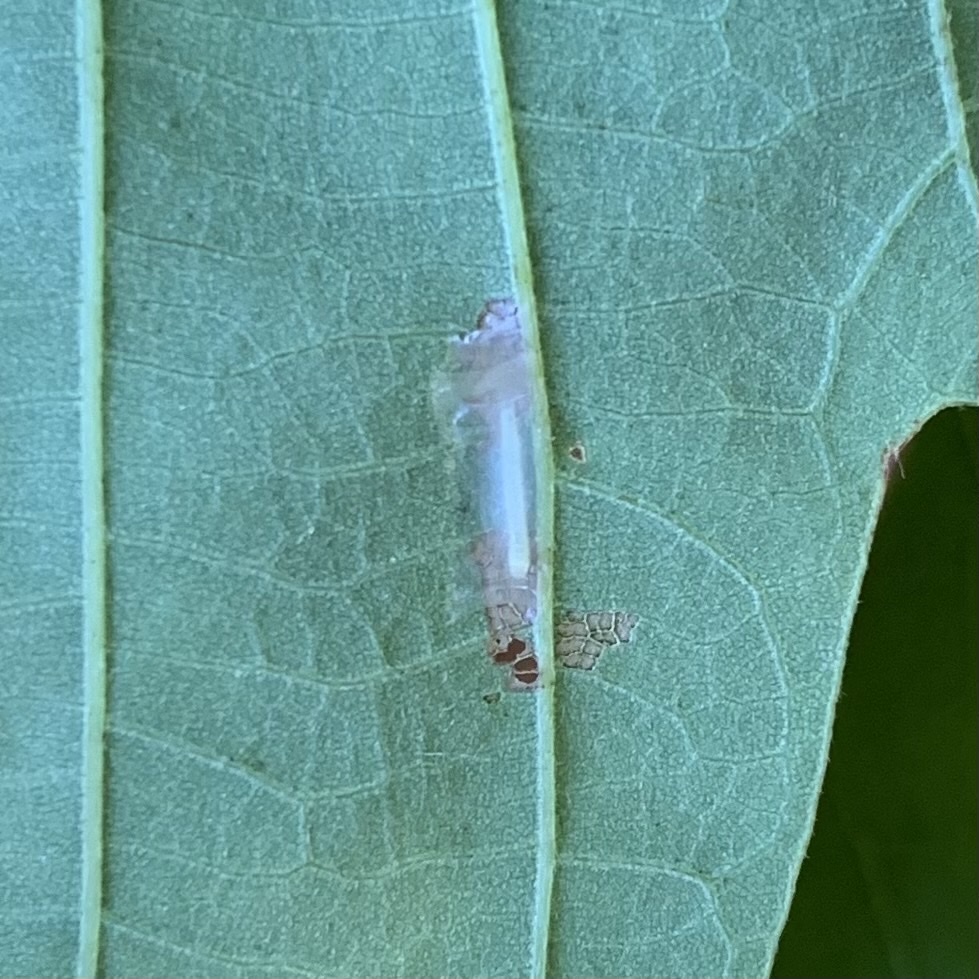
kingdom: Animalia
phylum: Arthropoda
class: Insecta
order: Lepidoptera
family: Peleopodidae
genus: Machimia
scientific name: Machimia tentoriferella
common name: Gold-striped leaftier moth
